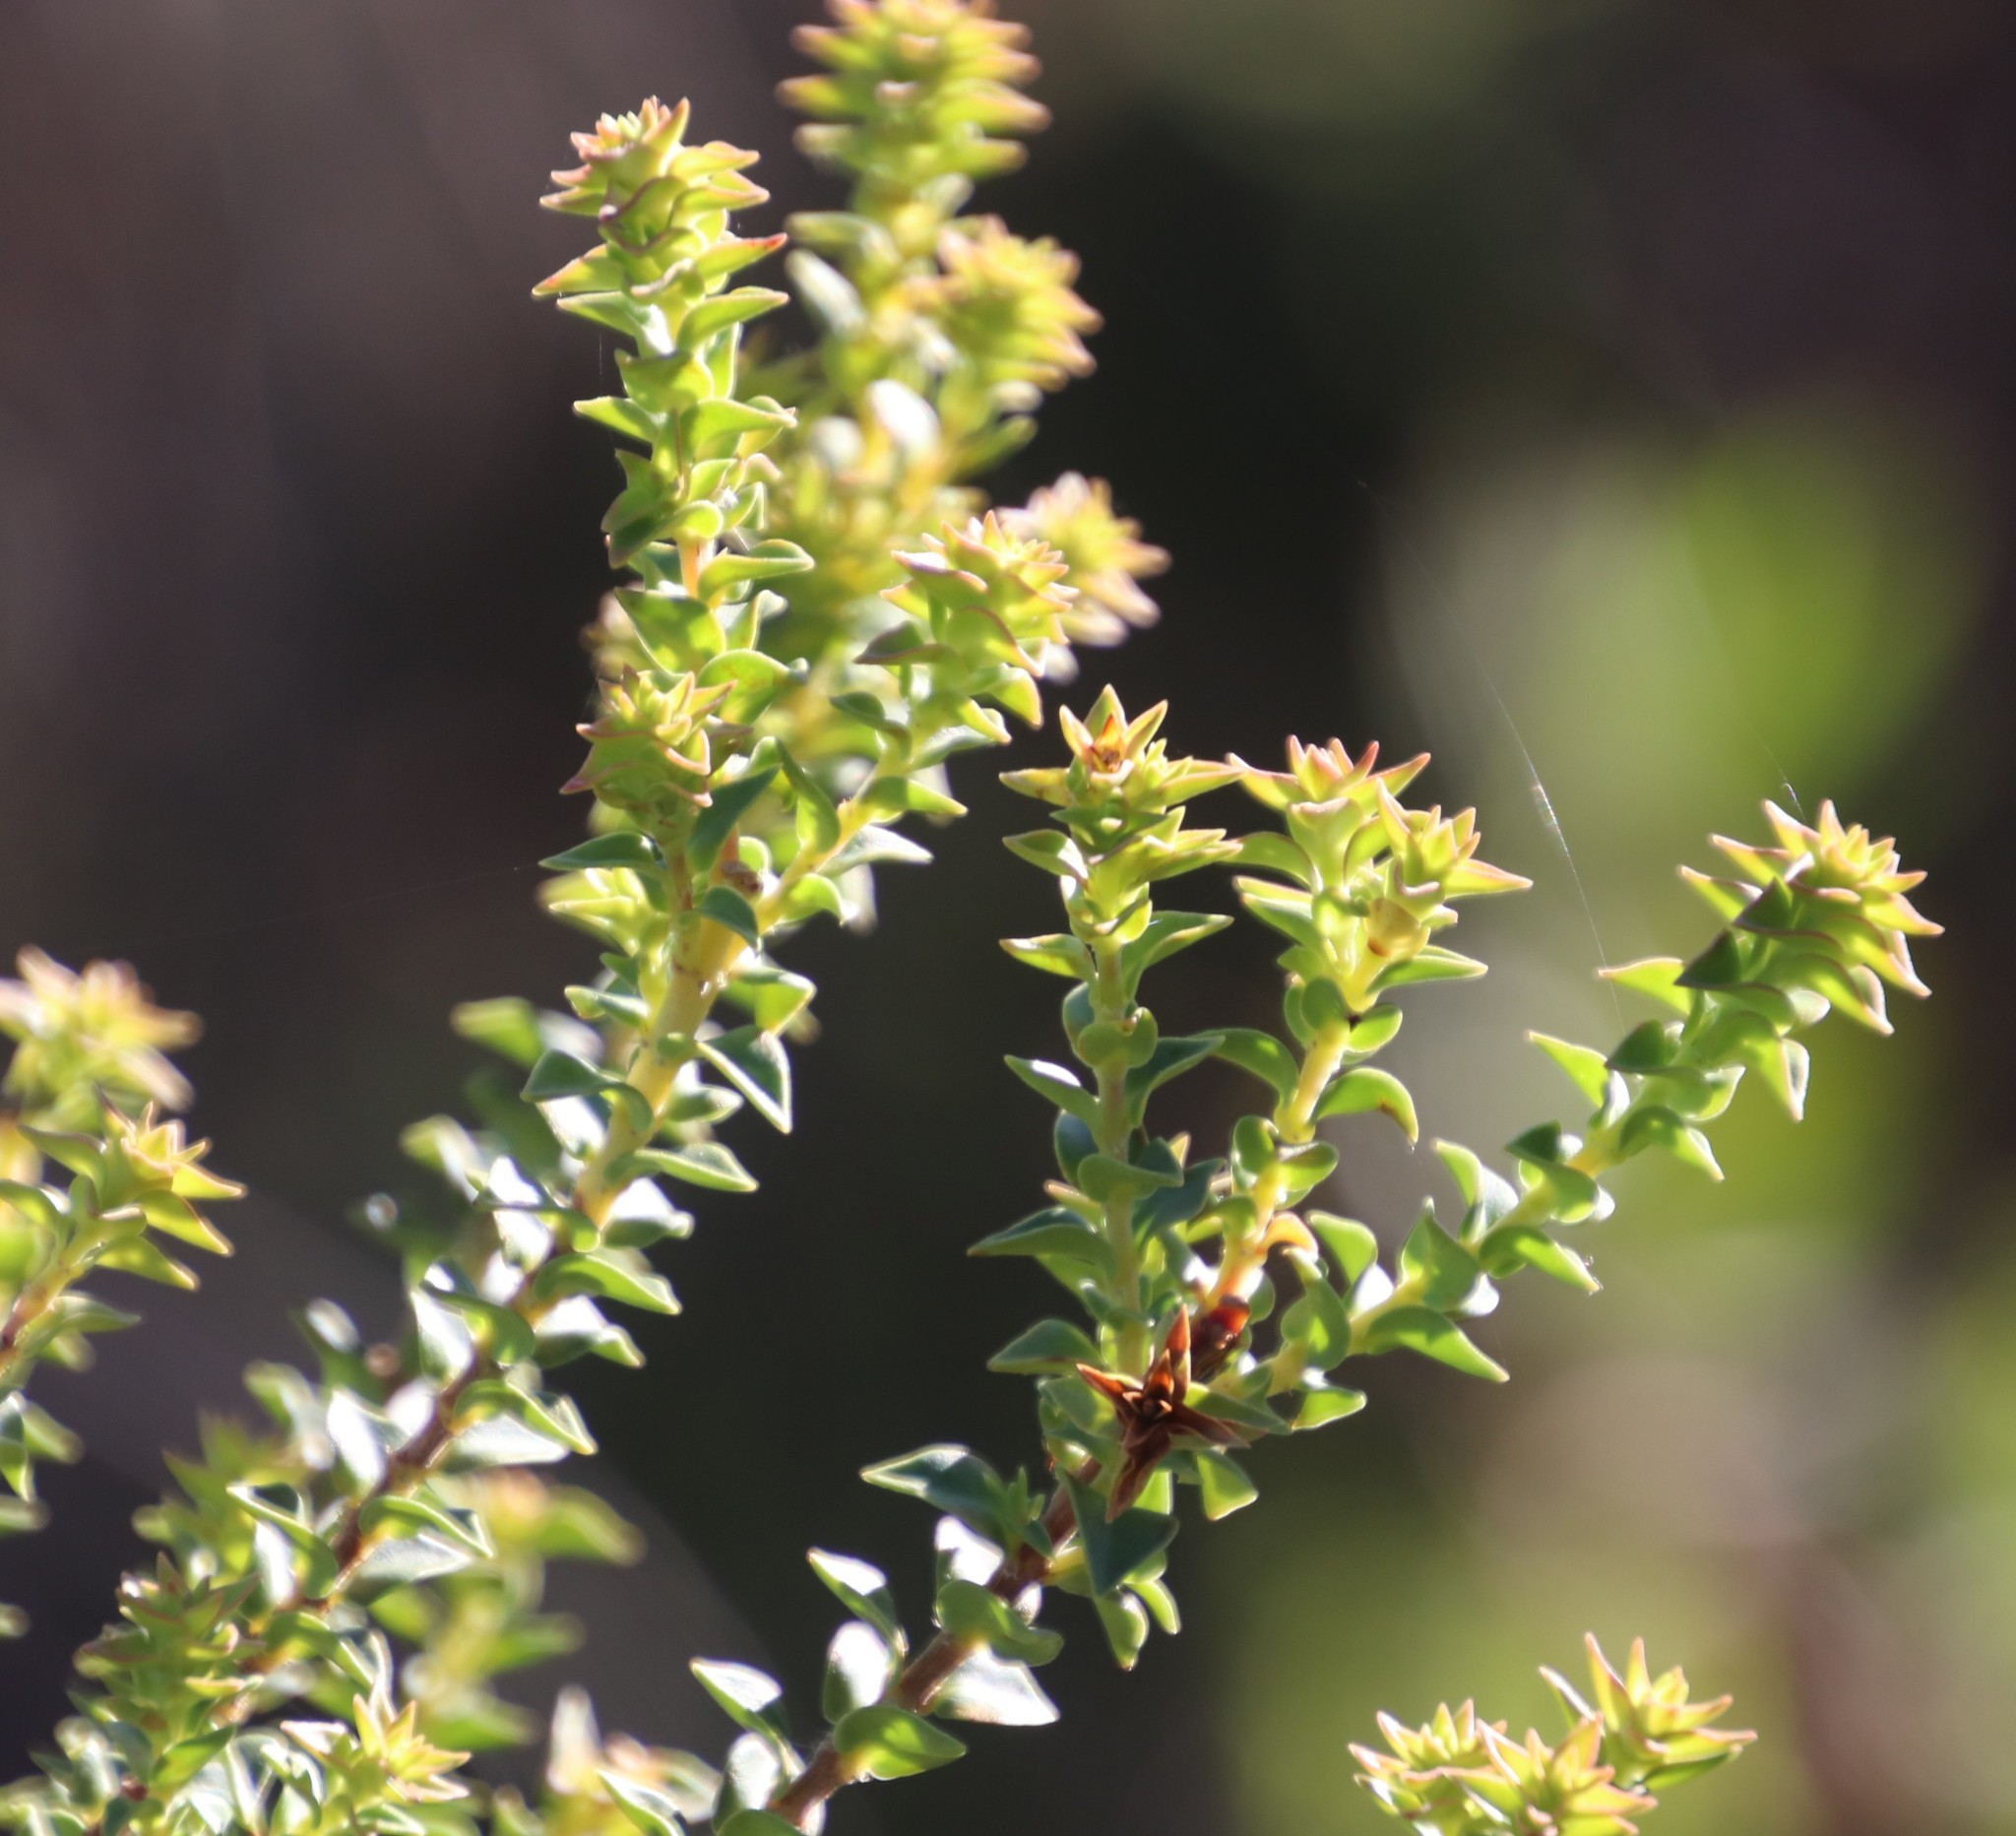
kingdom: Plantae
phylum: Tracheophyta
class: Magnoliopsida
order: Myrtales
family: Penaeaceae
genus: Penaea
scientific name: Penaea mucronata
